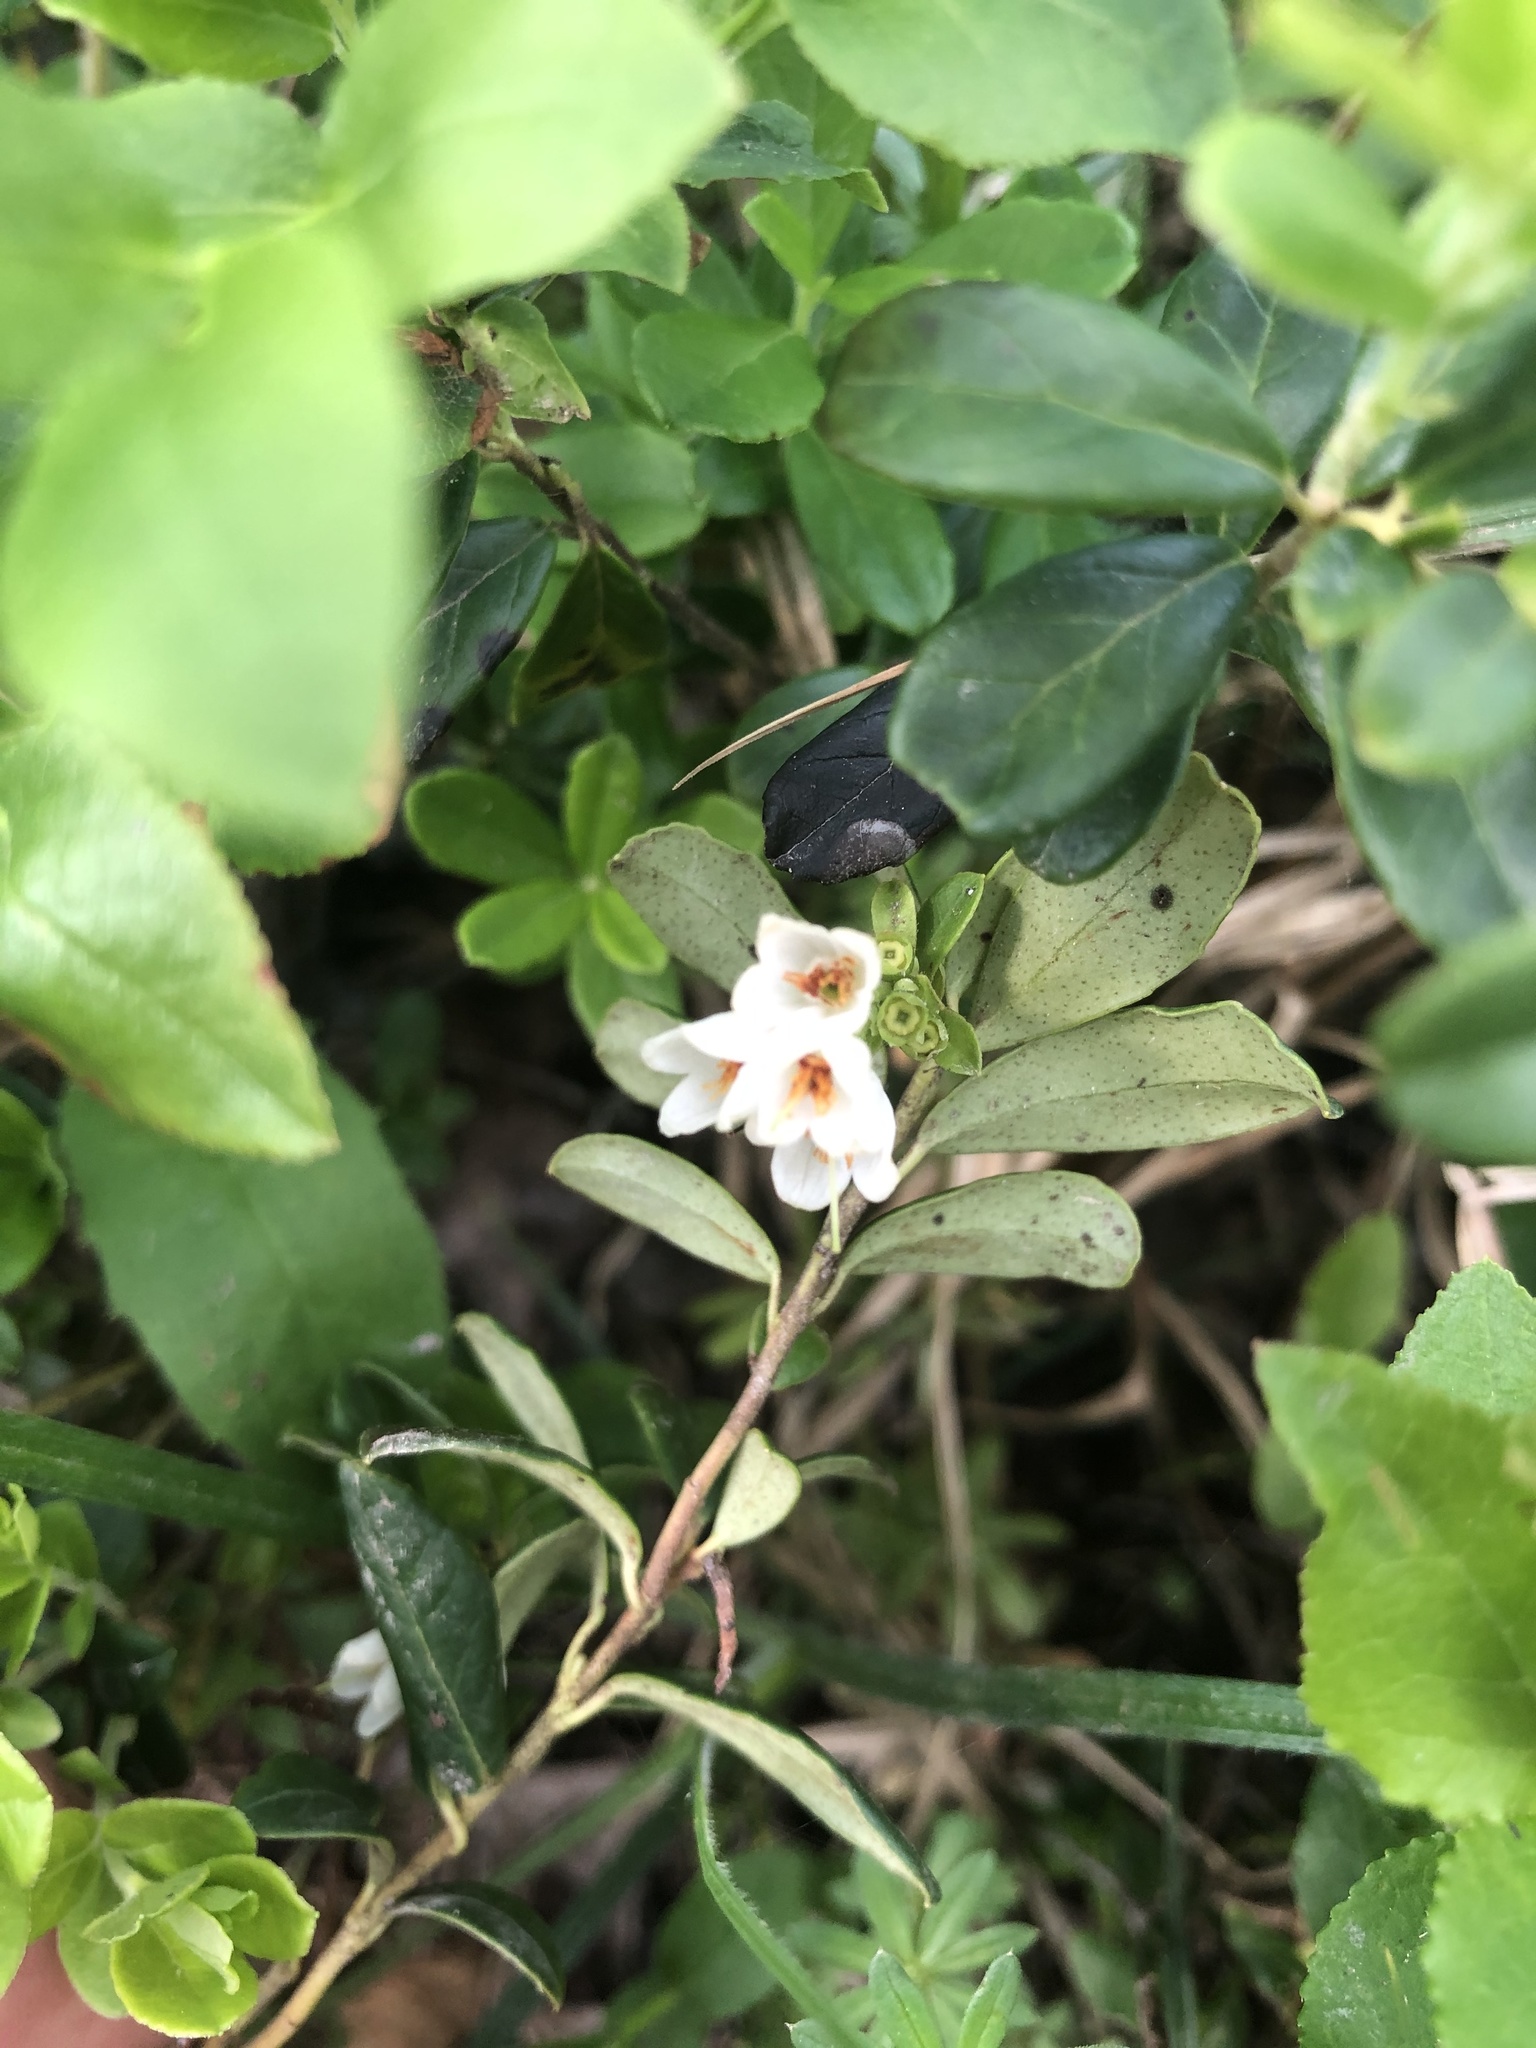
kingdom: Plantae
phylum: Tracheophyta
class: Magnoliopsida
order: Ericales
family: Ericaceae
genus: Vaccinium
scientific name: Vaccinium vitis-idaea
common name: Cowberry
